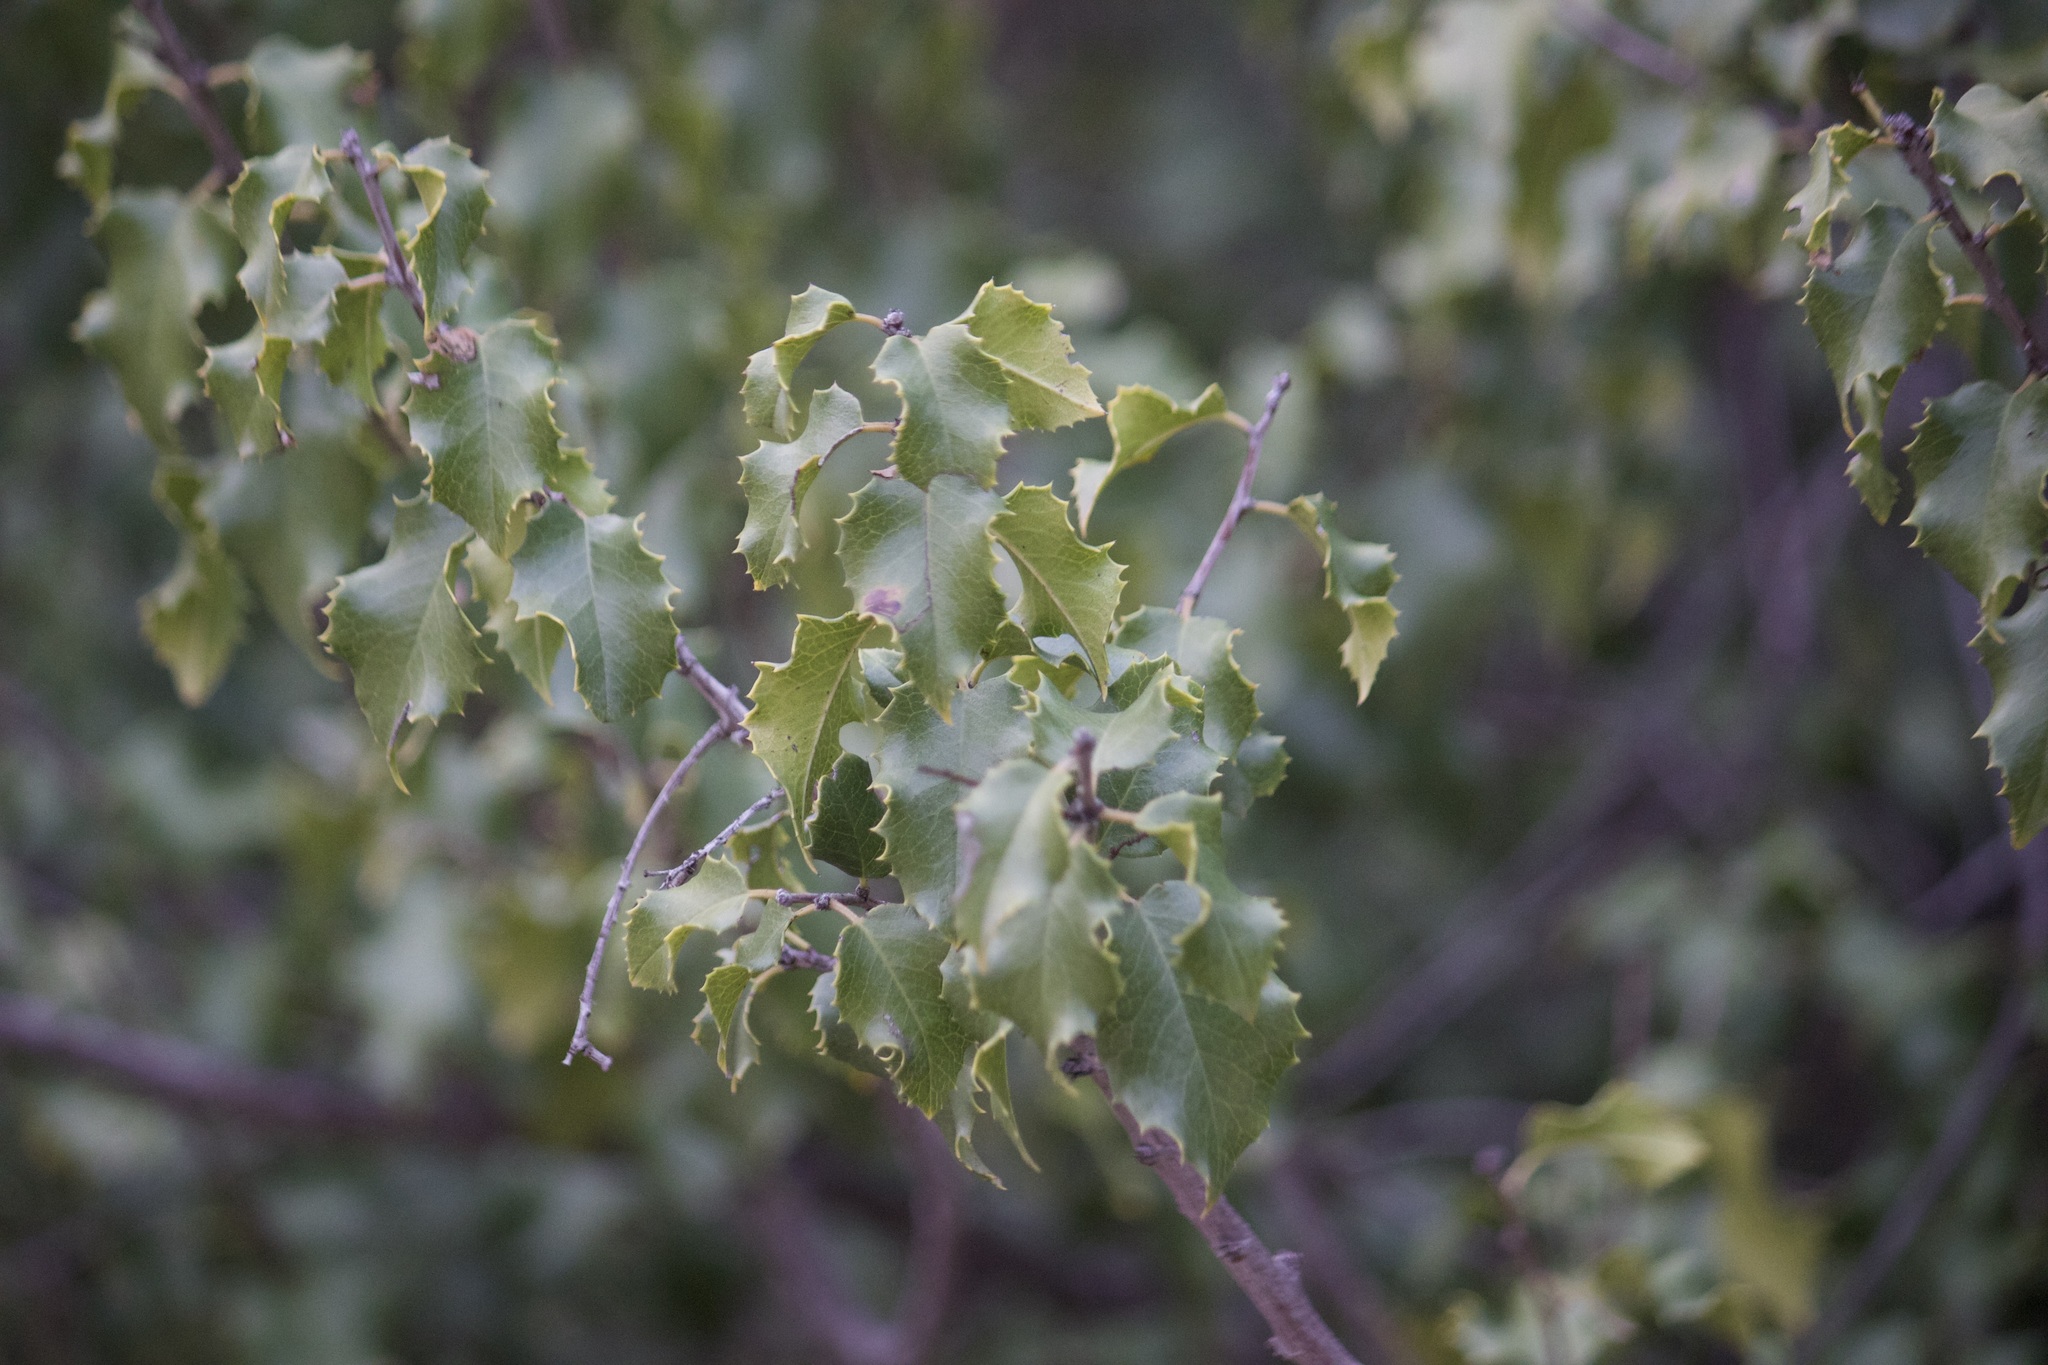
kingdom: Plantae
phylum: Tracheophyta
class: Magnoliopsida
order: Rosales
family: Rosaceae
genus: Prunus
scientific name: Prunus ilicifolia
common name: Hollyleaf cherry
